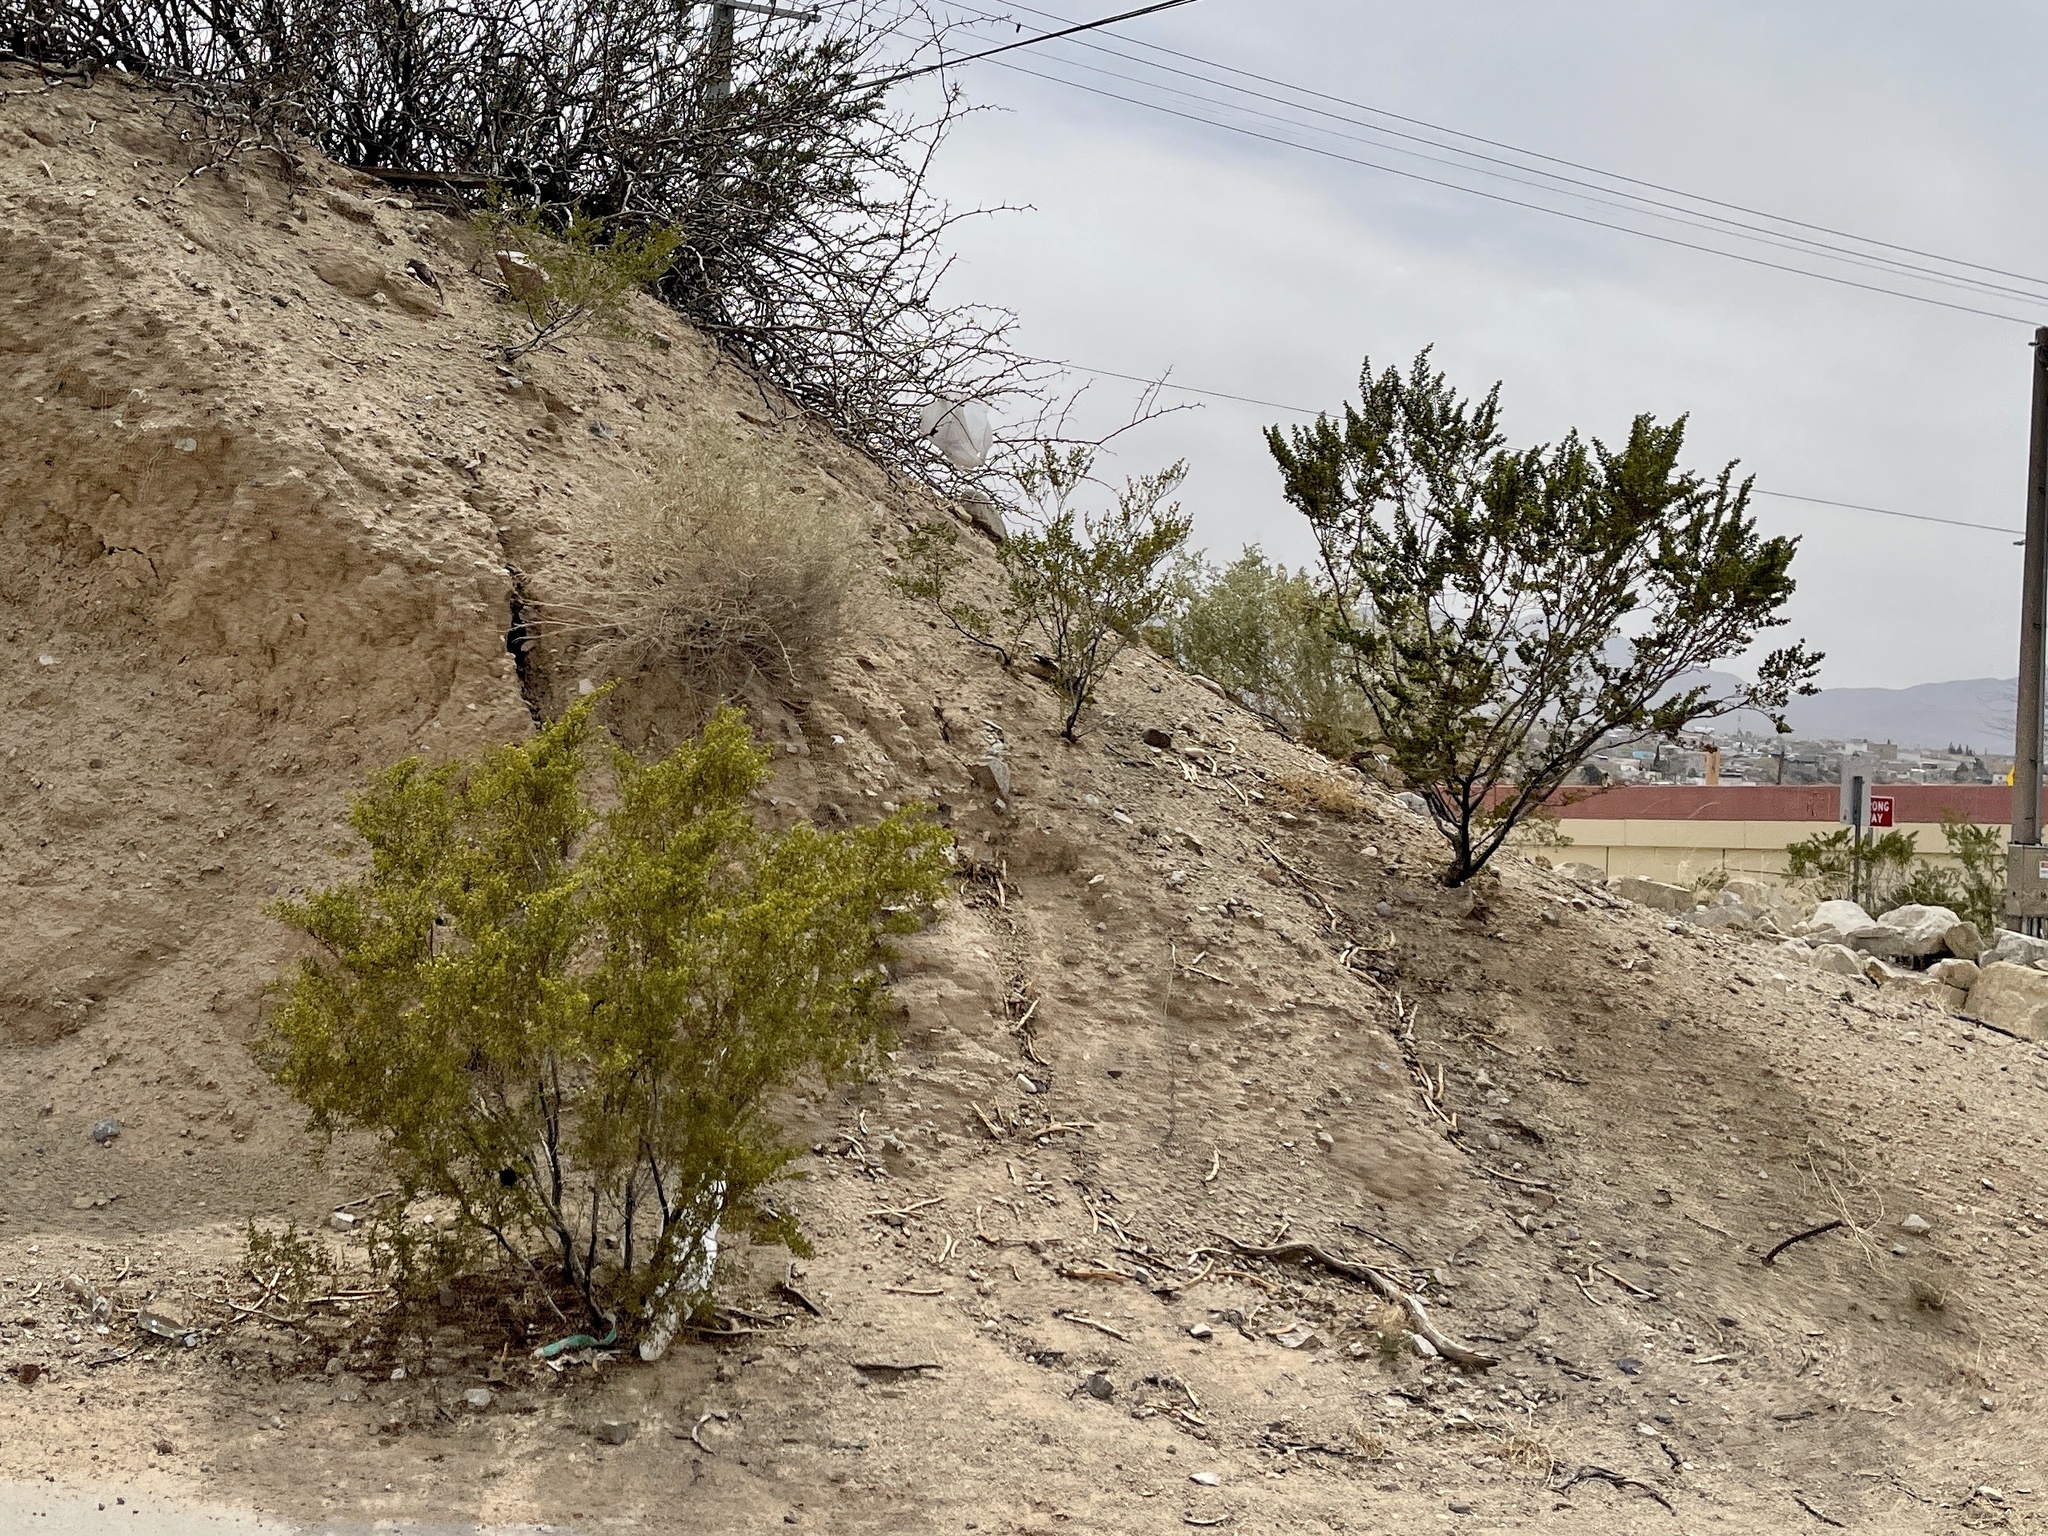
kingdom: Plantae
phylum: Tracheophyta
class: Magnoliopsida
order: Zygophyllales
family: Zygophyllaceae
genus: Larrea
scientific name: Larrea tridentata
